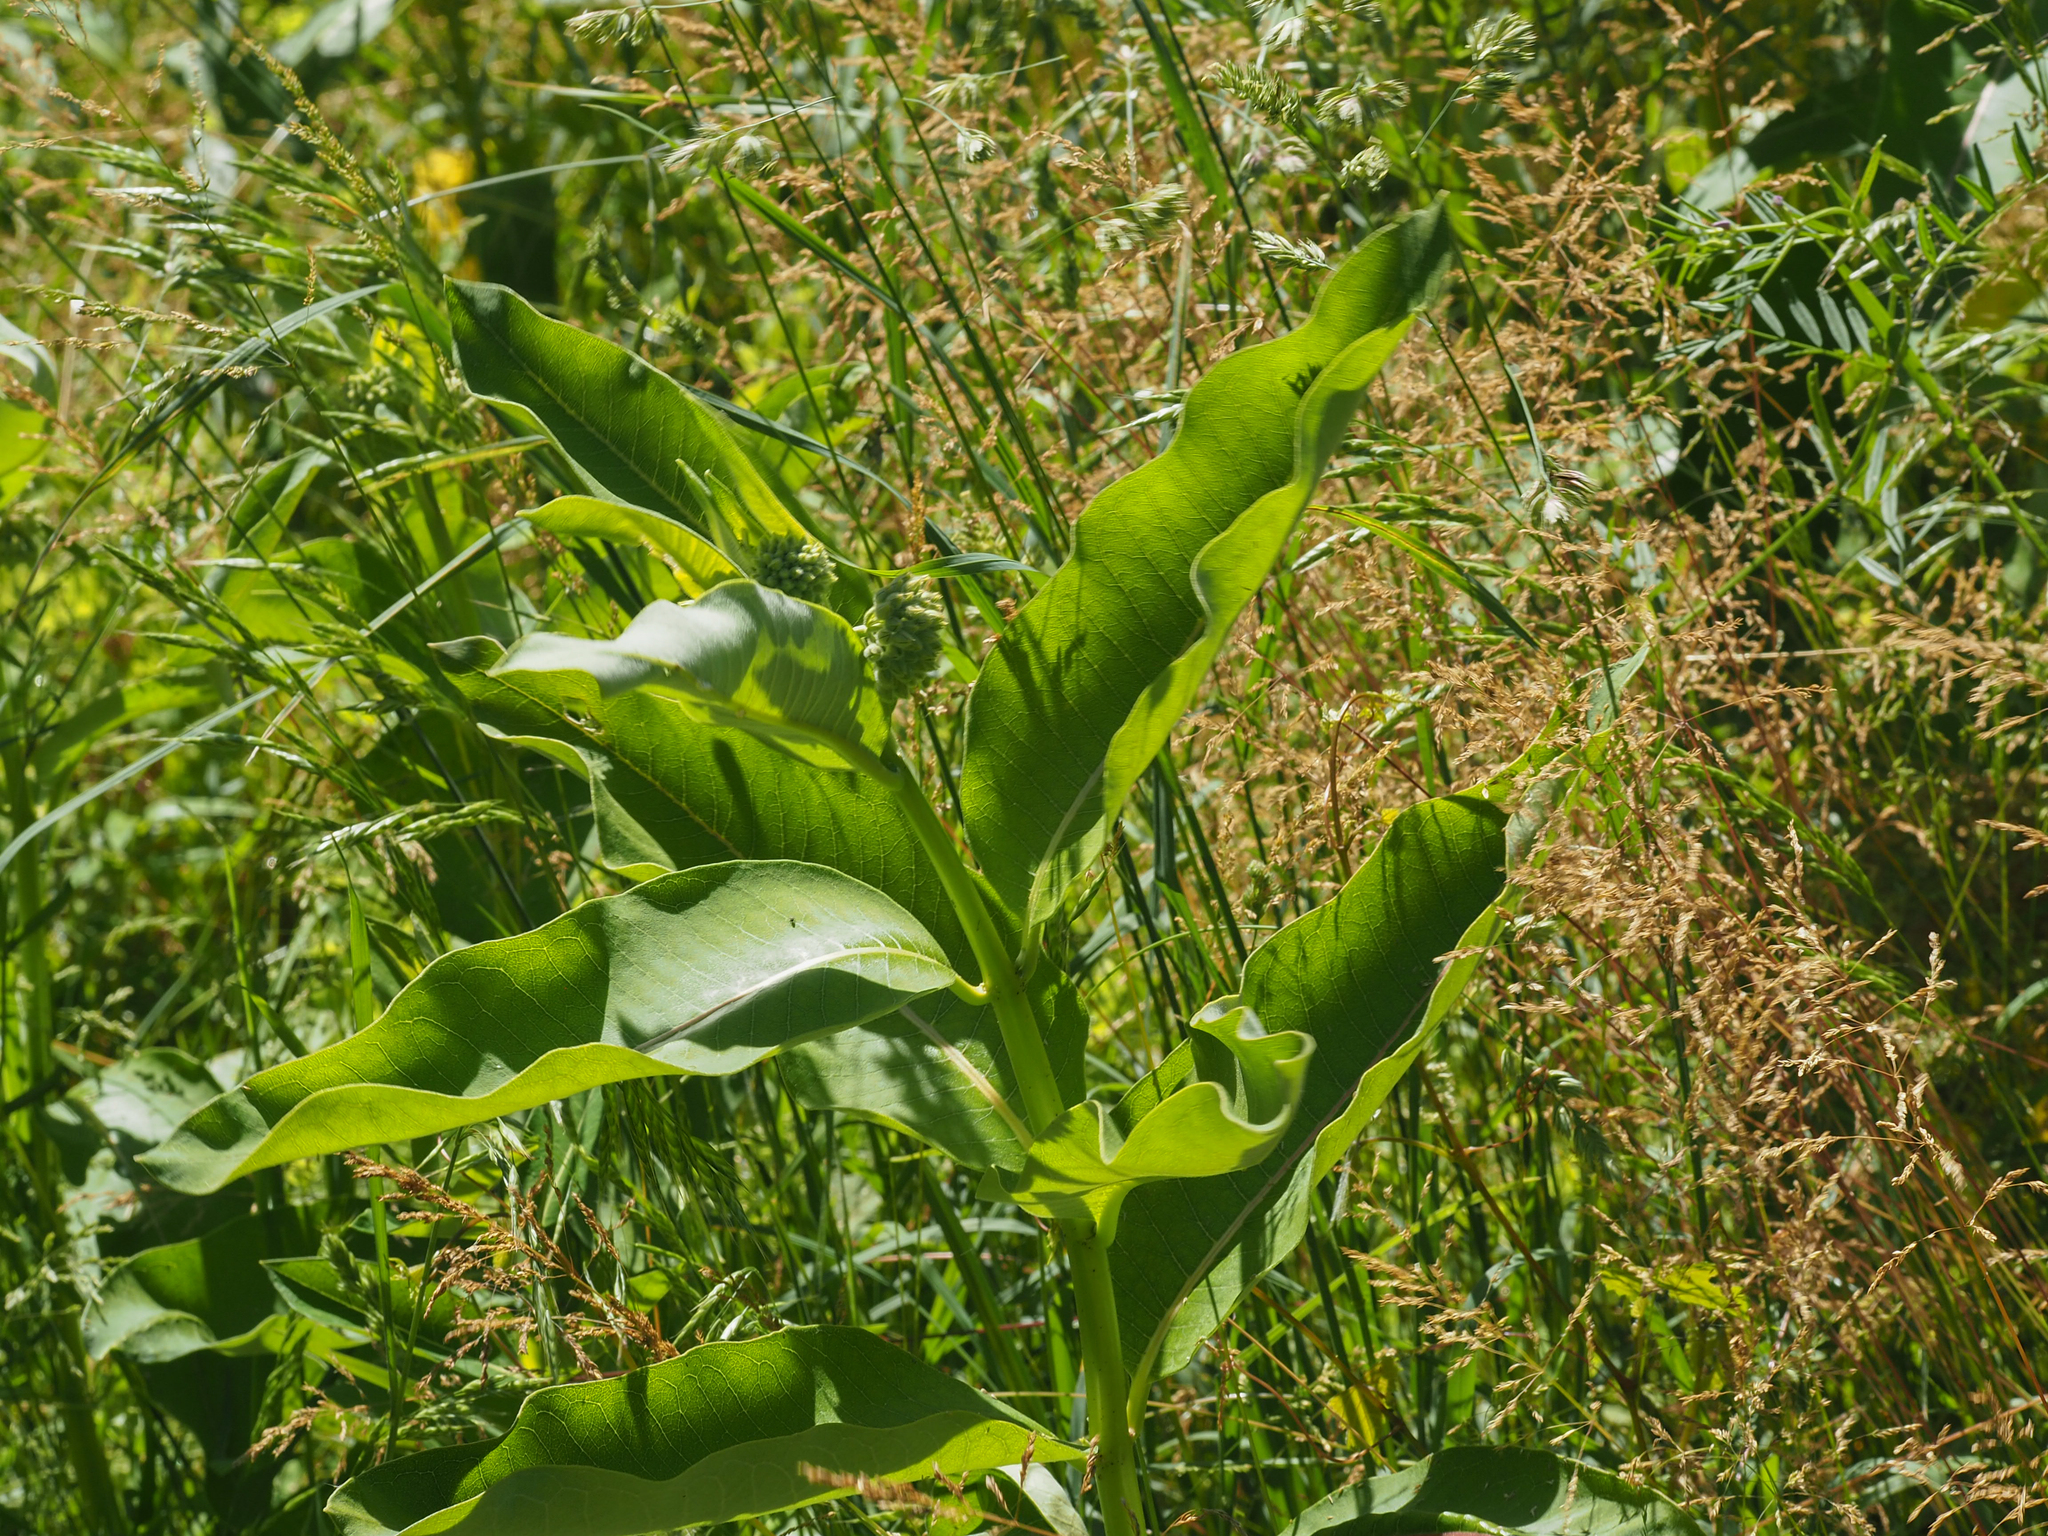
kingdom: Plantae
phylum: Tracheophyta
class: Magnoliopsida
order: Gentianales
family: Apocynaceae
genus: Asclepias
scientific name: Asclepias syriaca
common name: Common milkweed
